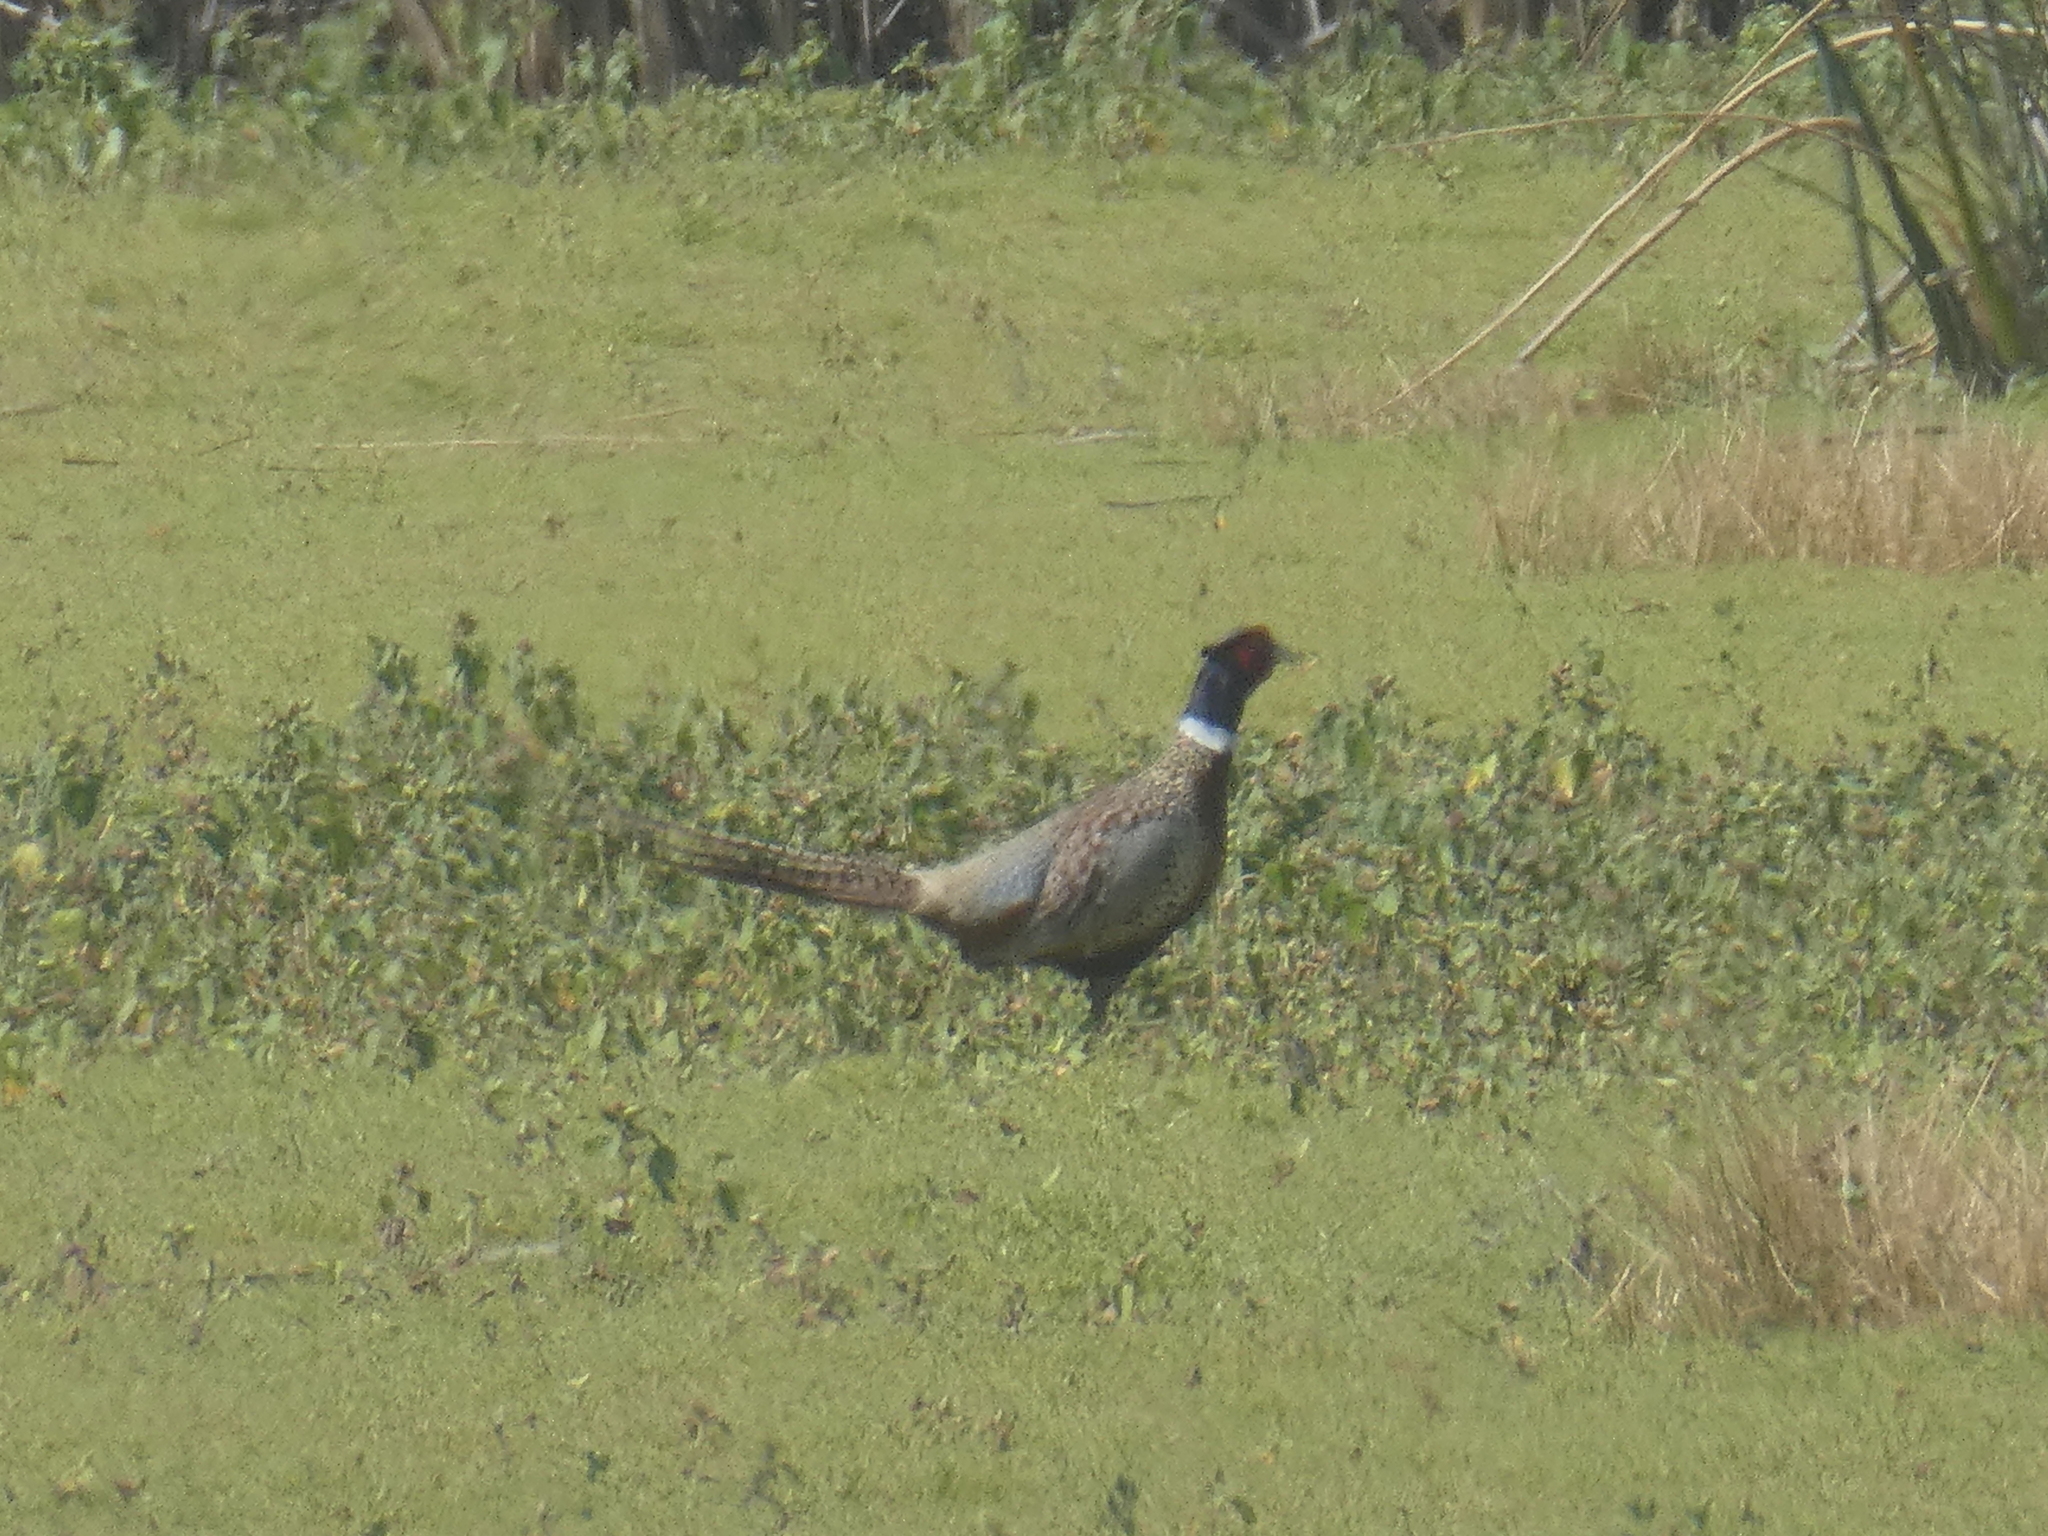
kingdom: Animalia
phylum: Chordata
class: Aves
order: Galliformes
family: Phasianidae
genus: Phasianus
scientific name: Phasianus colchicus
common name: Common pheasant
